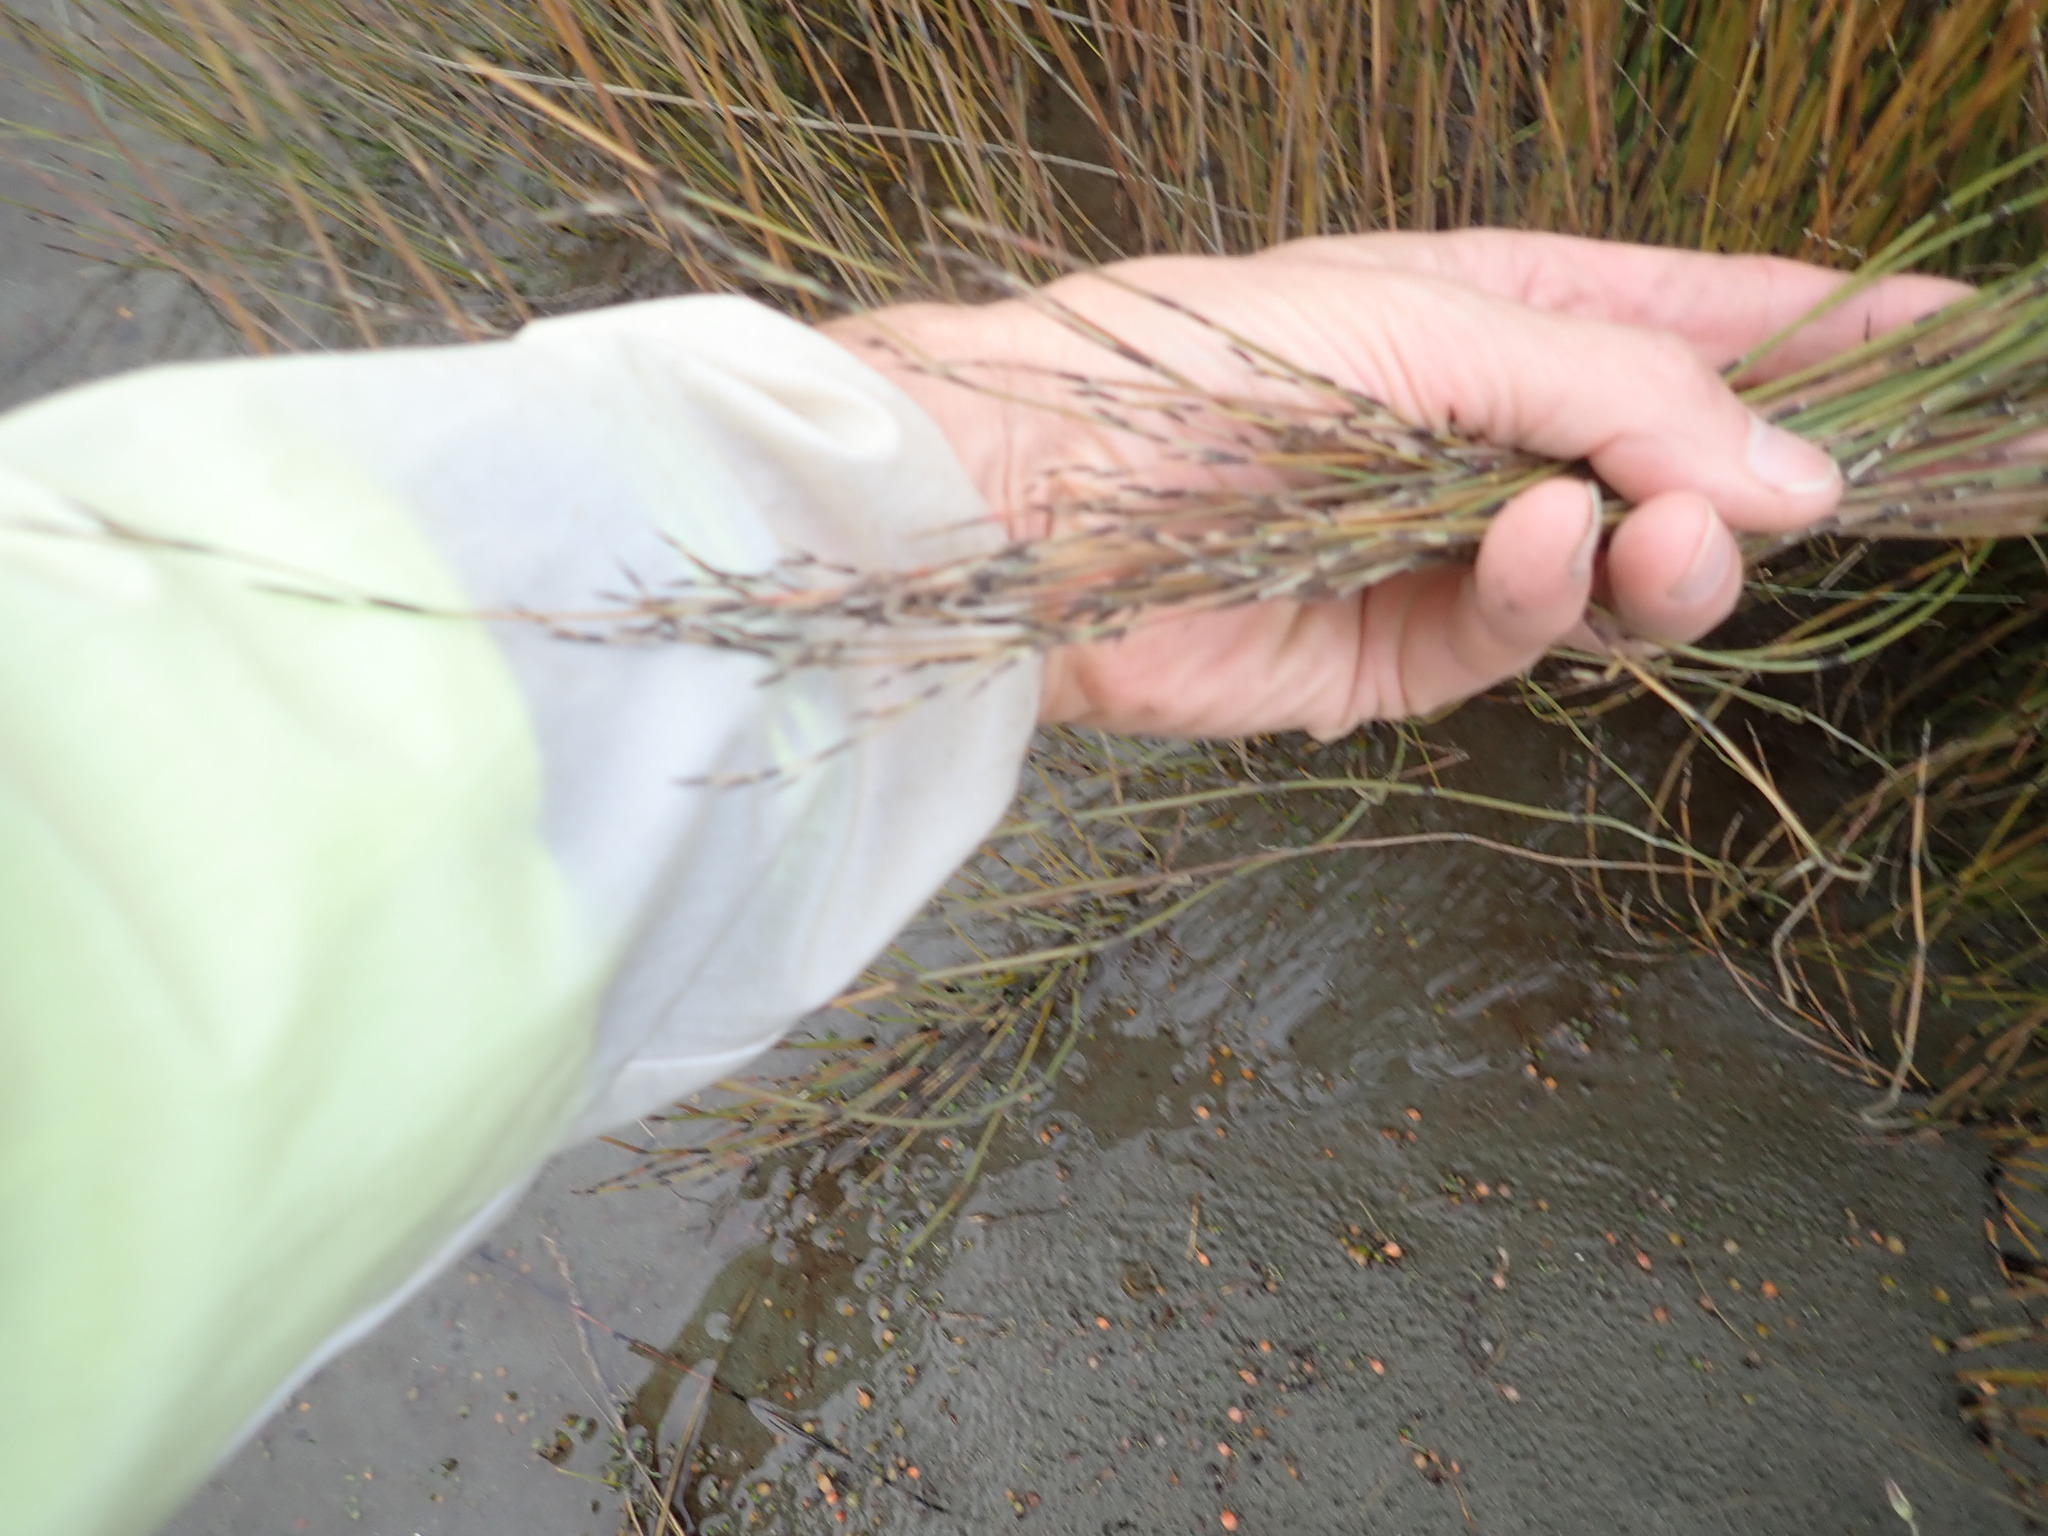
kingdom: Plantae
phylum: Tracheophyta
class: Liliopsida
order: Poales
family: Restionaceae
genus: Apodasmia
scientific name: Apodasmia similis
